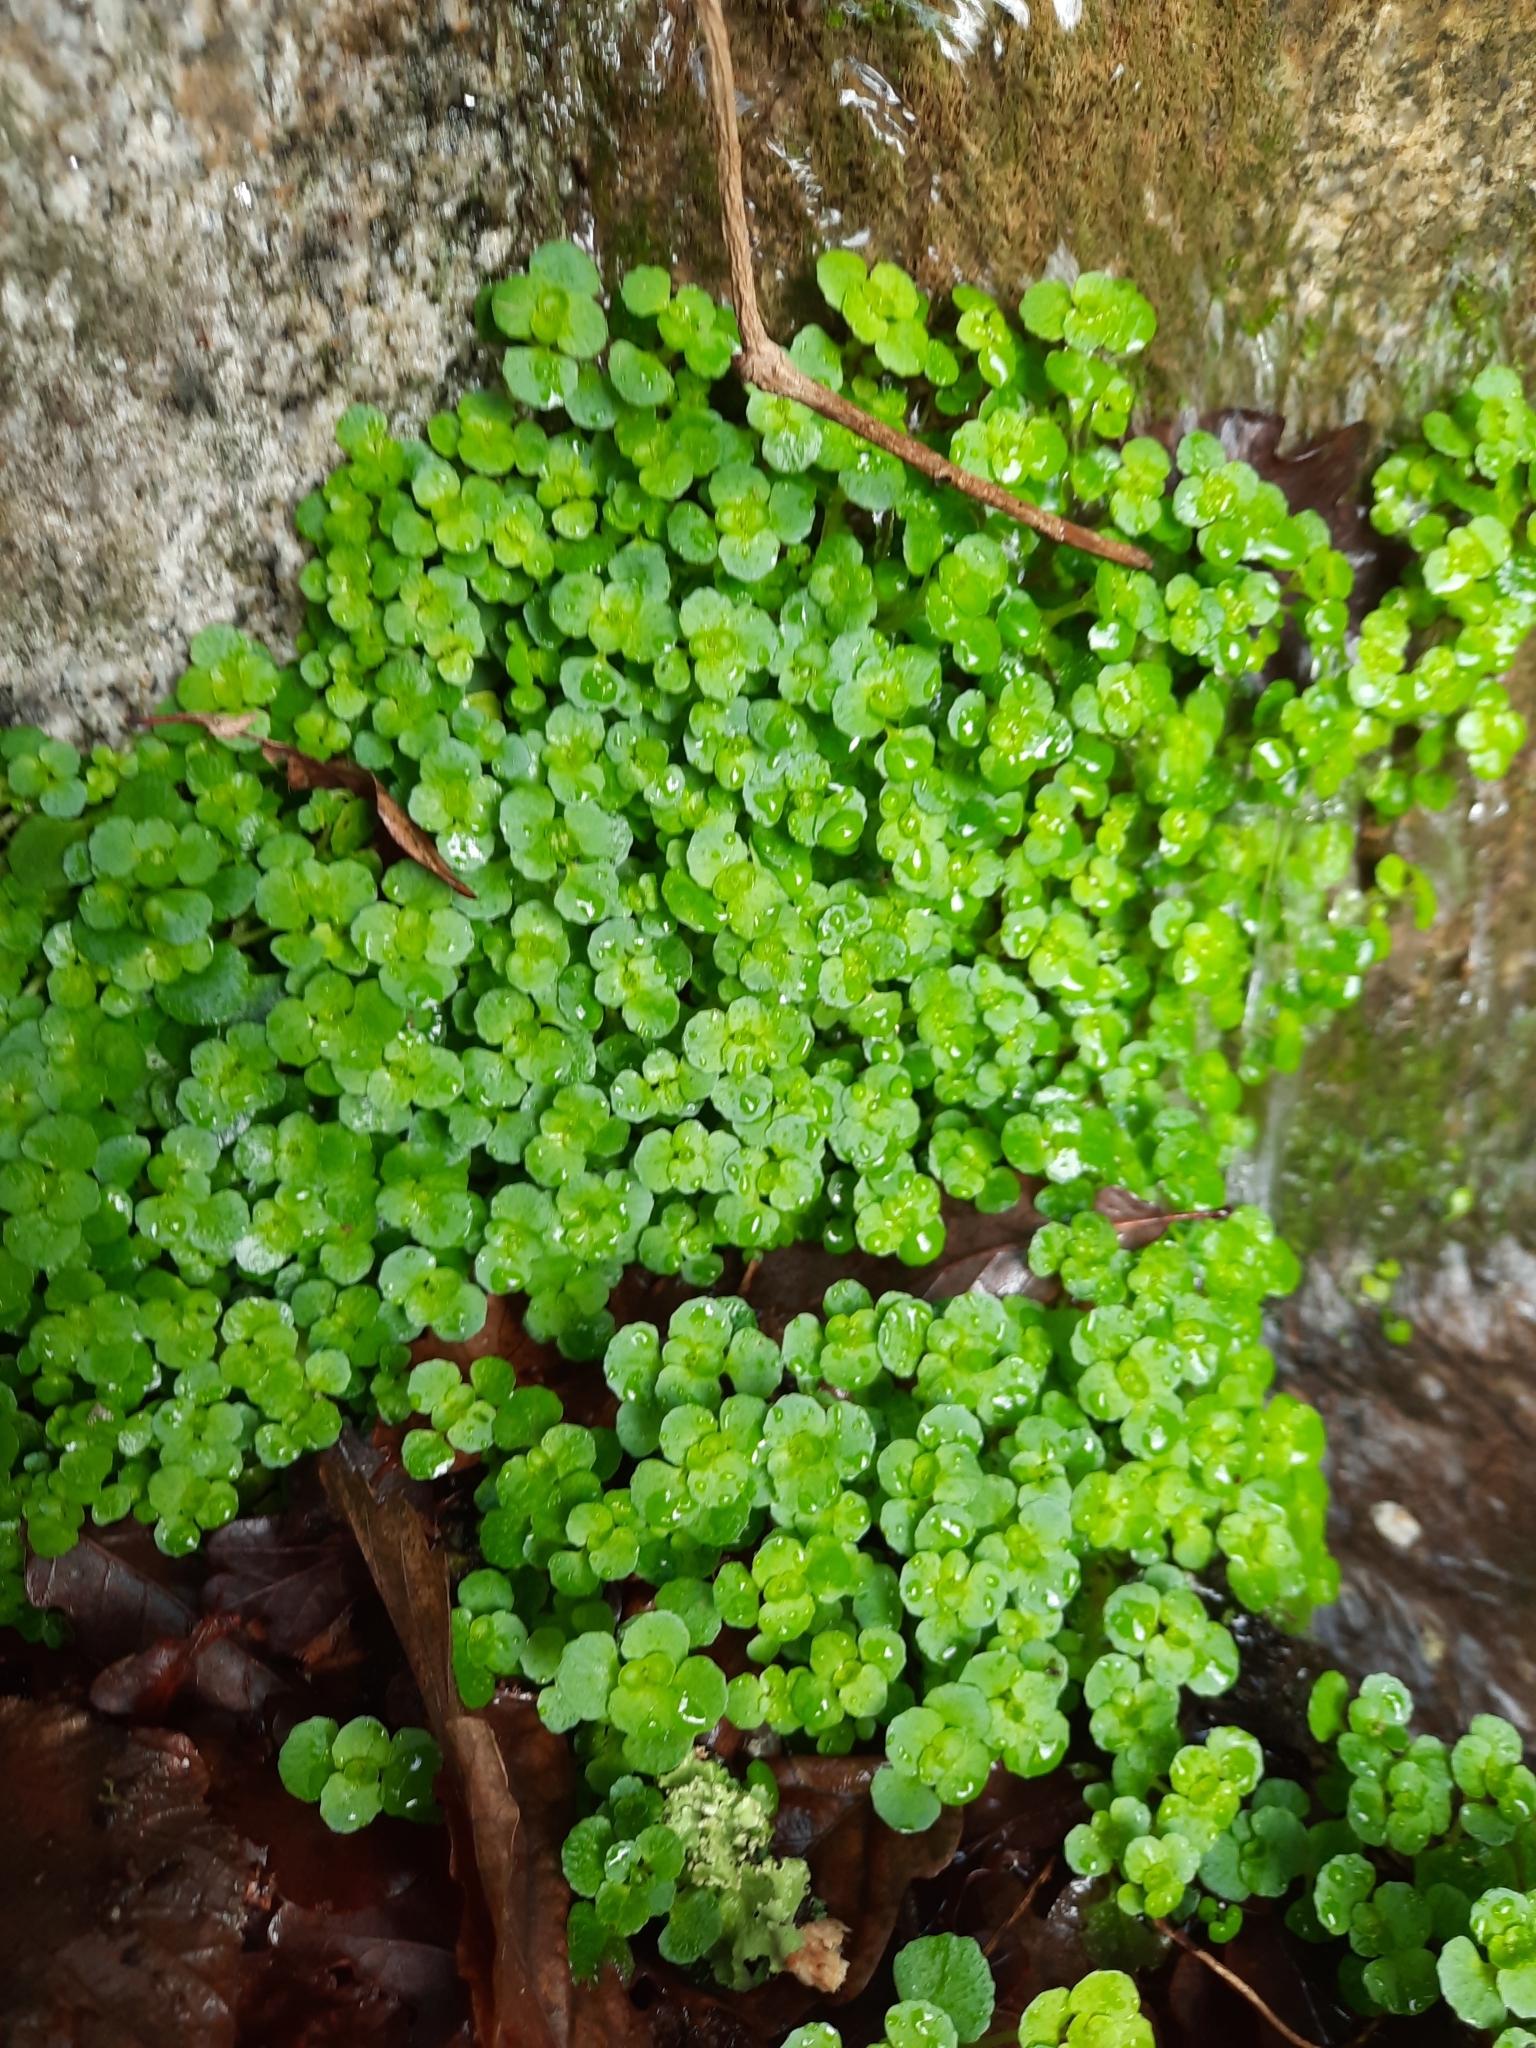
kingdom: Plantae
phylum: Tracheophyta
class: Magnoliopsida
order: Saxifragales
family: Saxifragaceae
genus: Chrysosplenium
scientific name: Chrysosplenium oppositifolium
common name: Opposite-leaved golden-saxifrage
